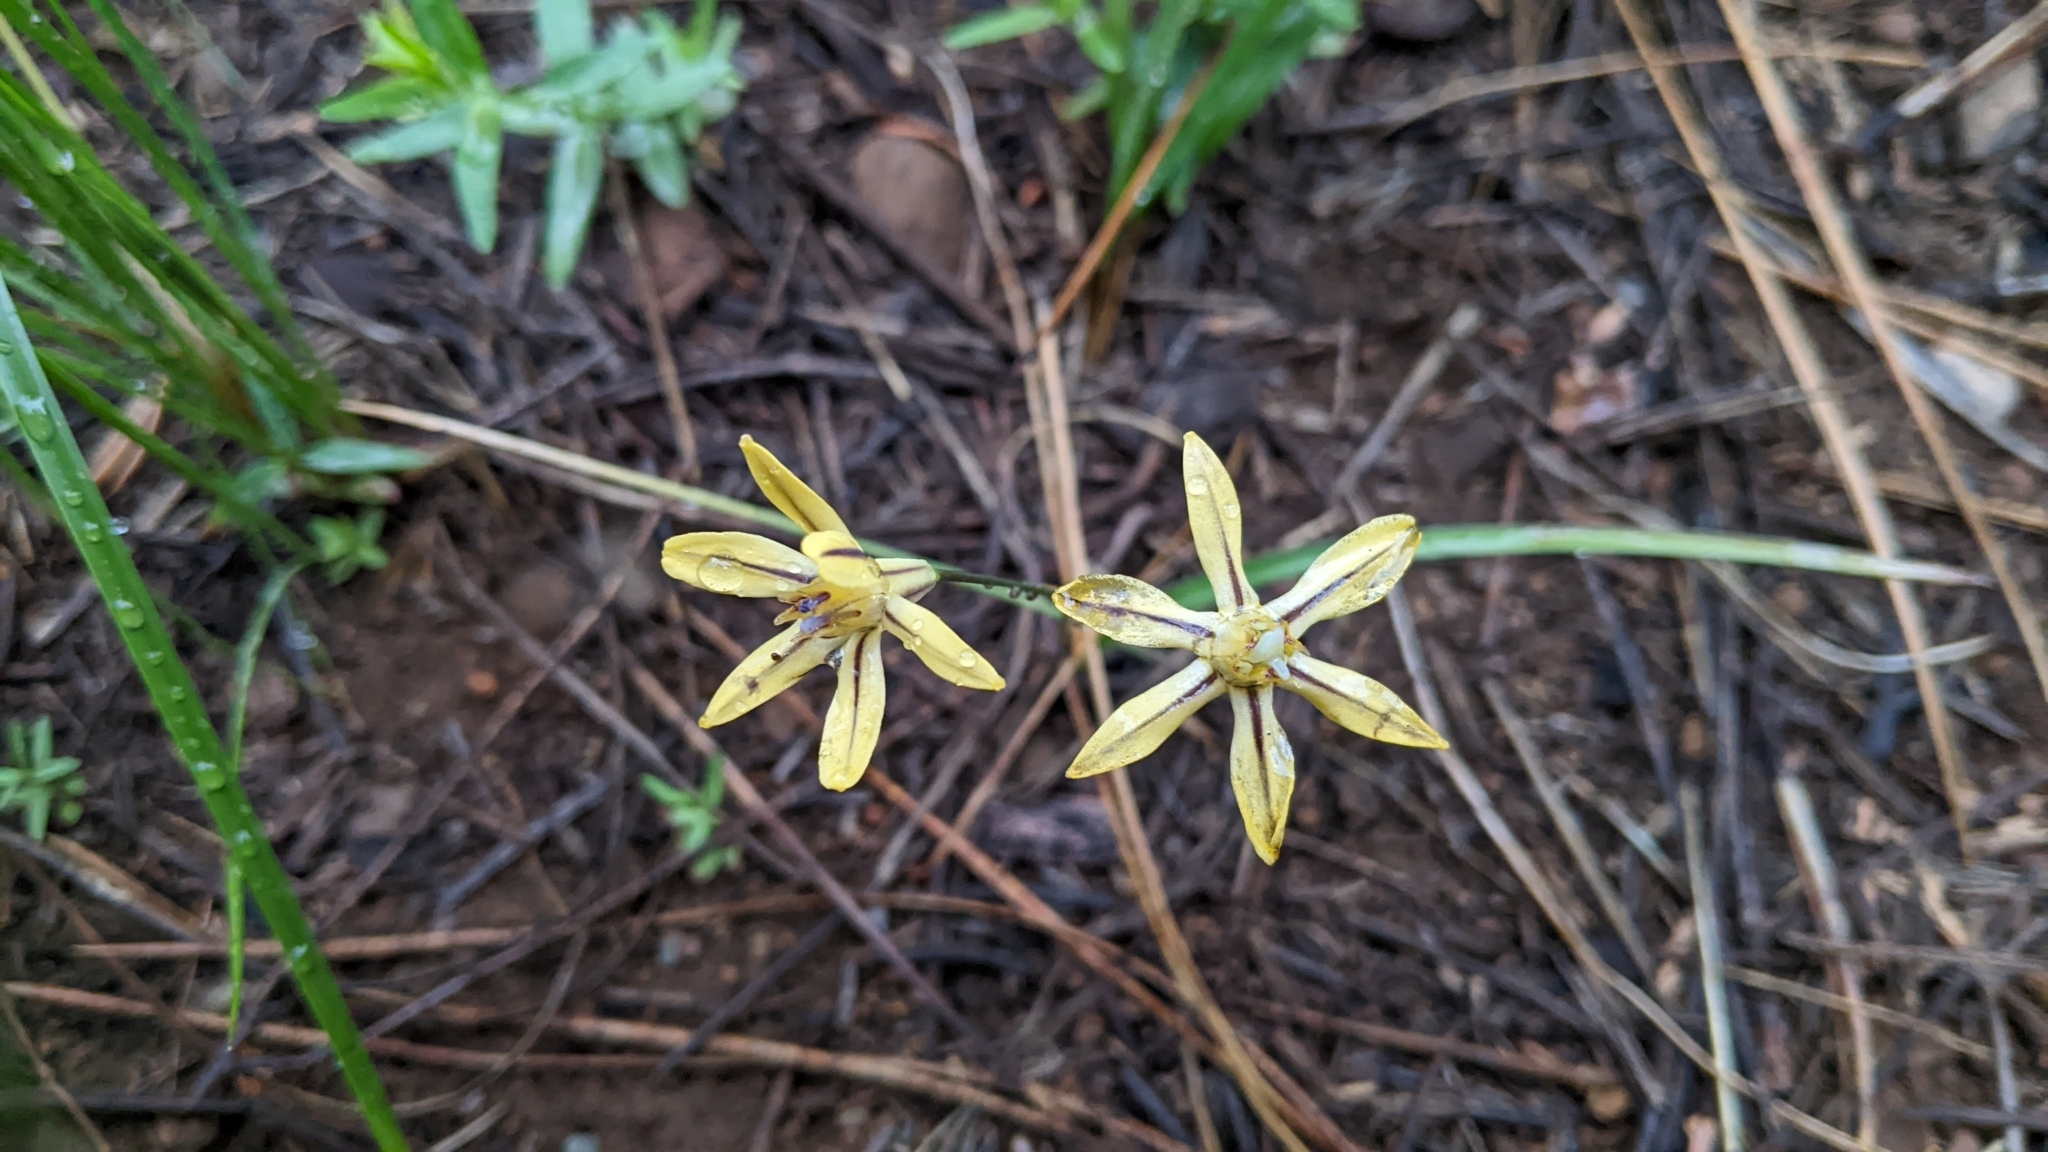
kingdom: Plantae
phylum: Tracheophyta
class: Liliopsida
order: Asparagales
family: Asparagaceae
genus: Triteleia
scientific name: Triteleia ixioides
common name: Yellow-brodiaea
